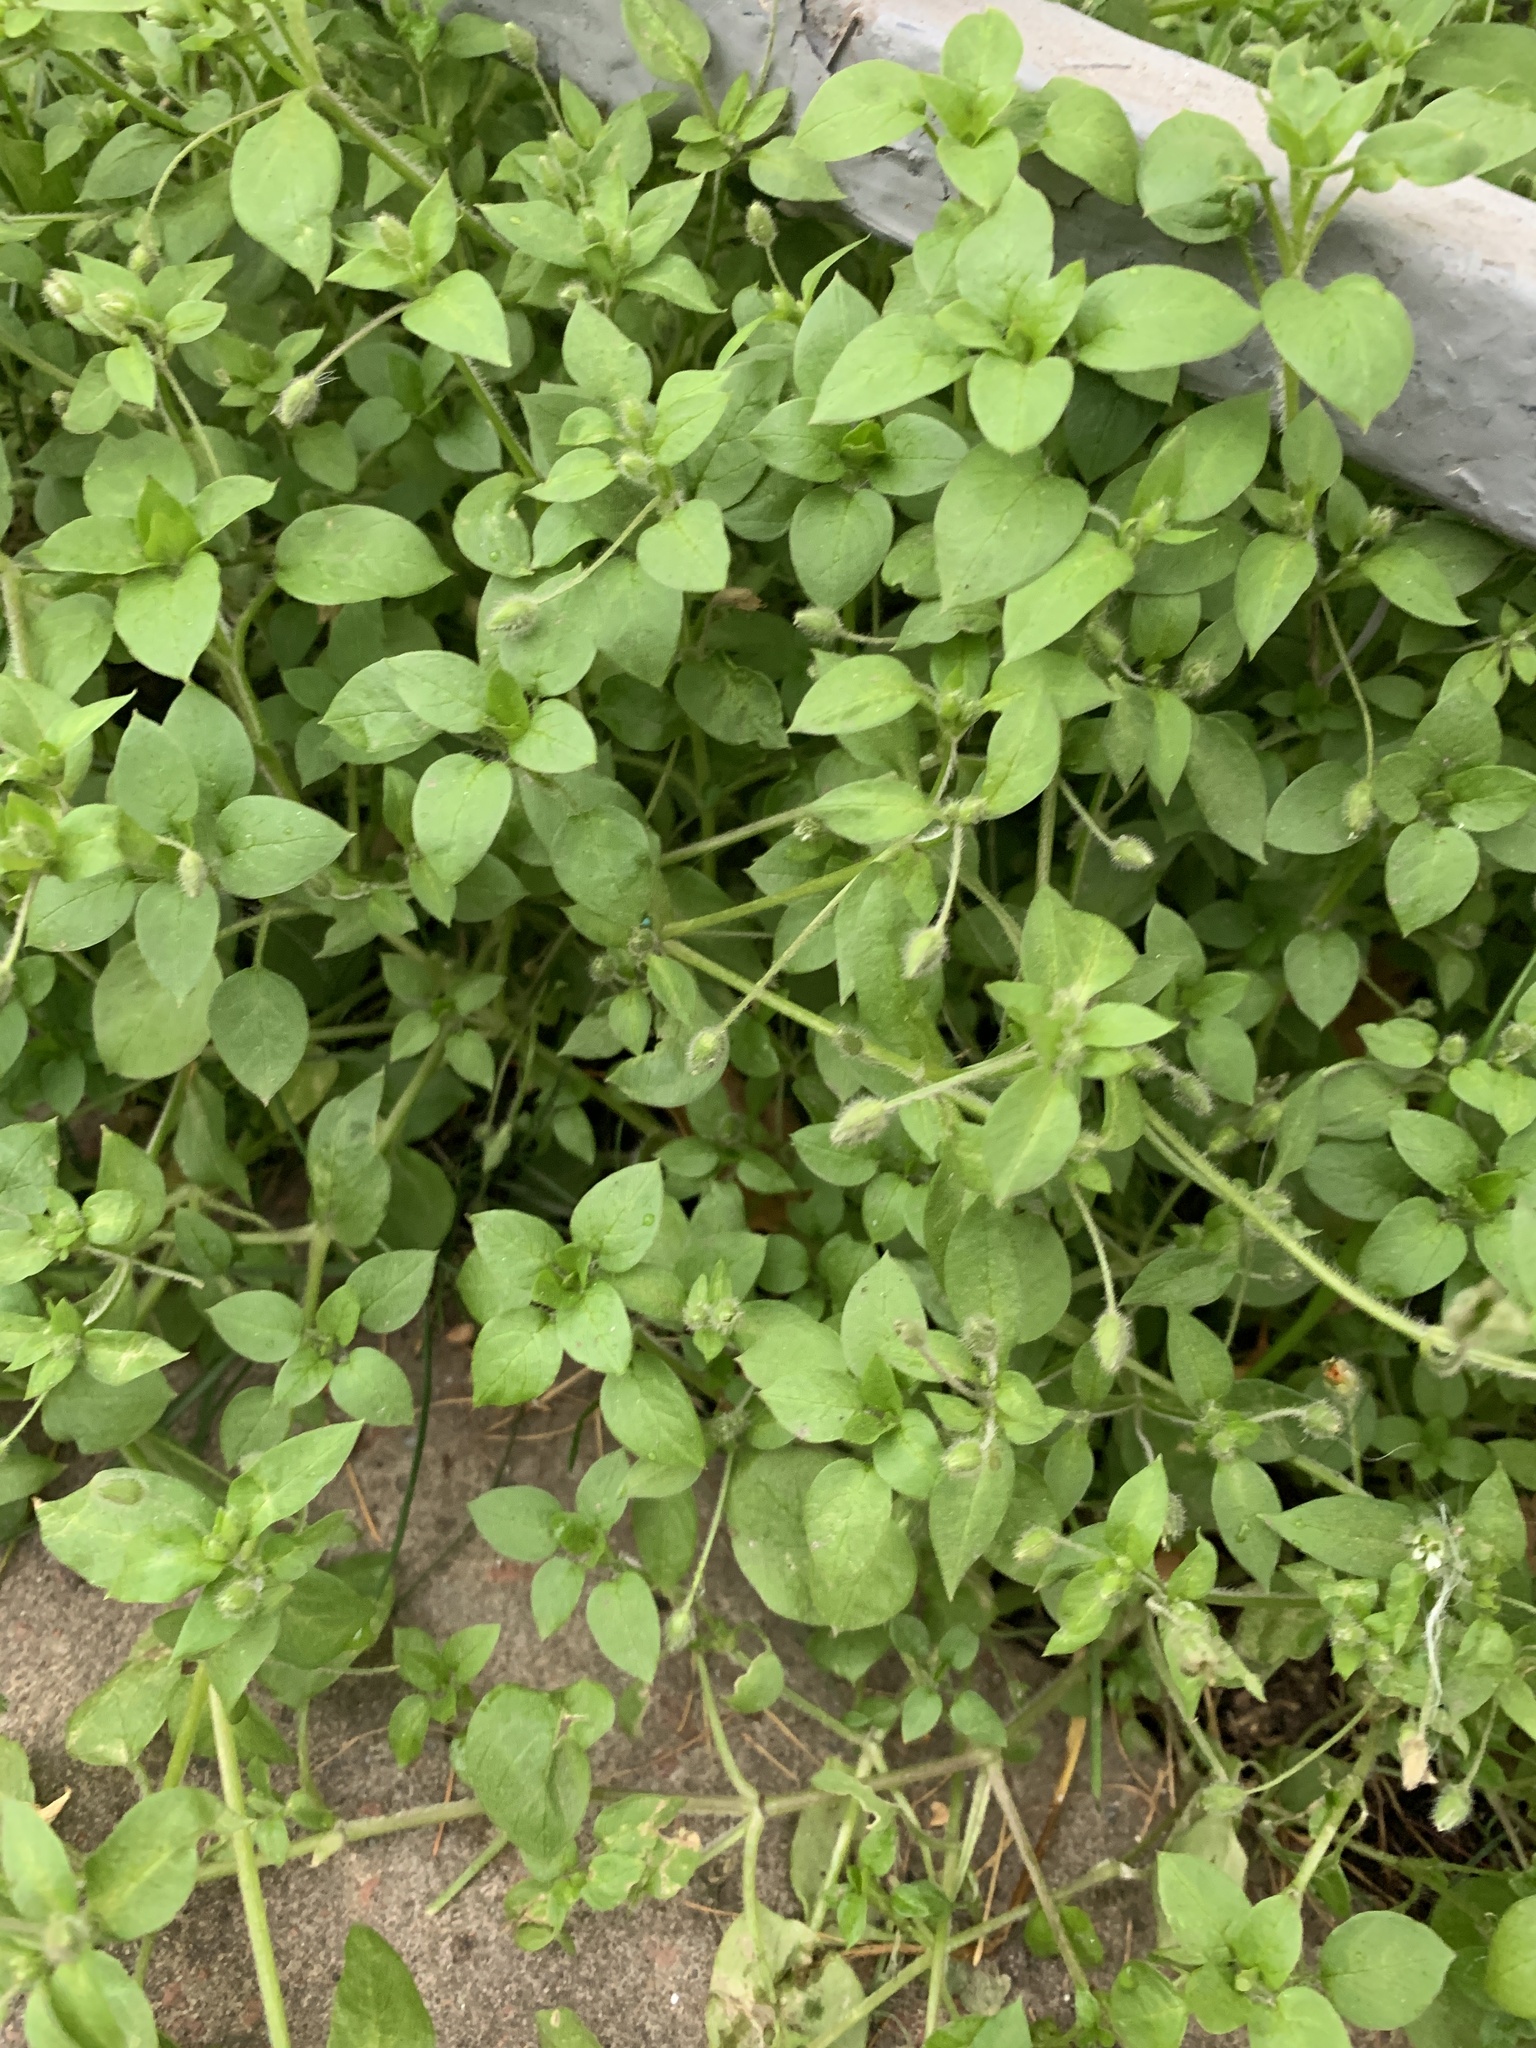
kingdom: Plantae
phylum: Tracheophyta
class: Magnoliopsida
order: Caryophyllales
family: Caryophyllaceae
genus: Stellaria
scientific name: Stellaria media
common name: Common chickweed
